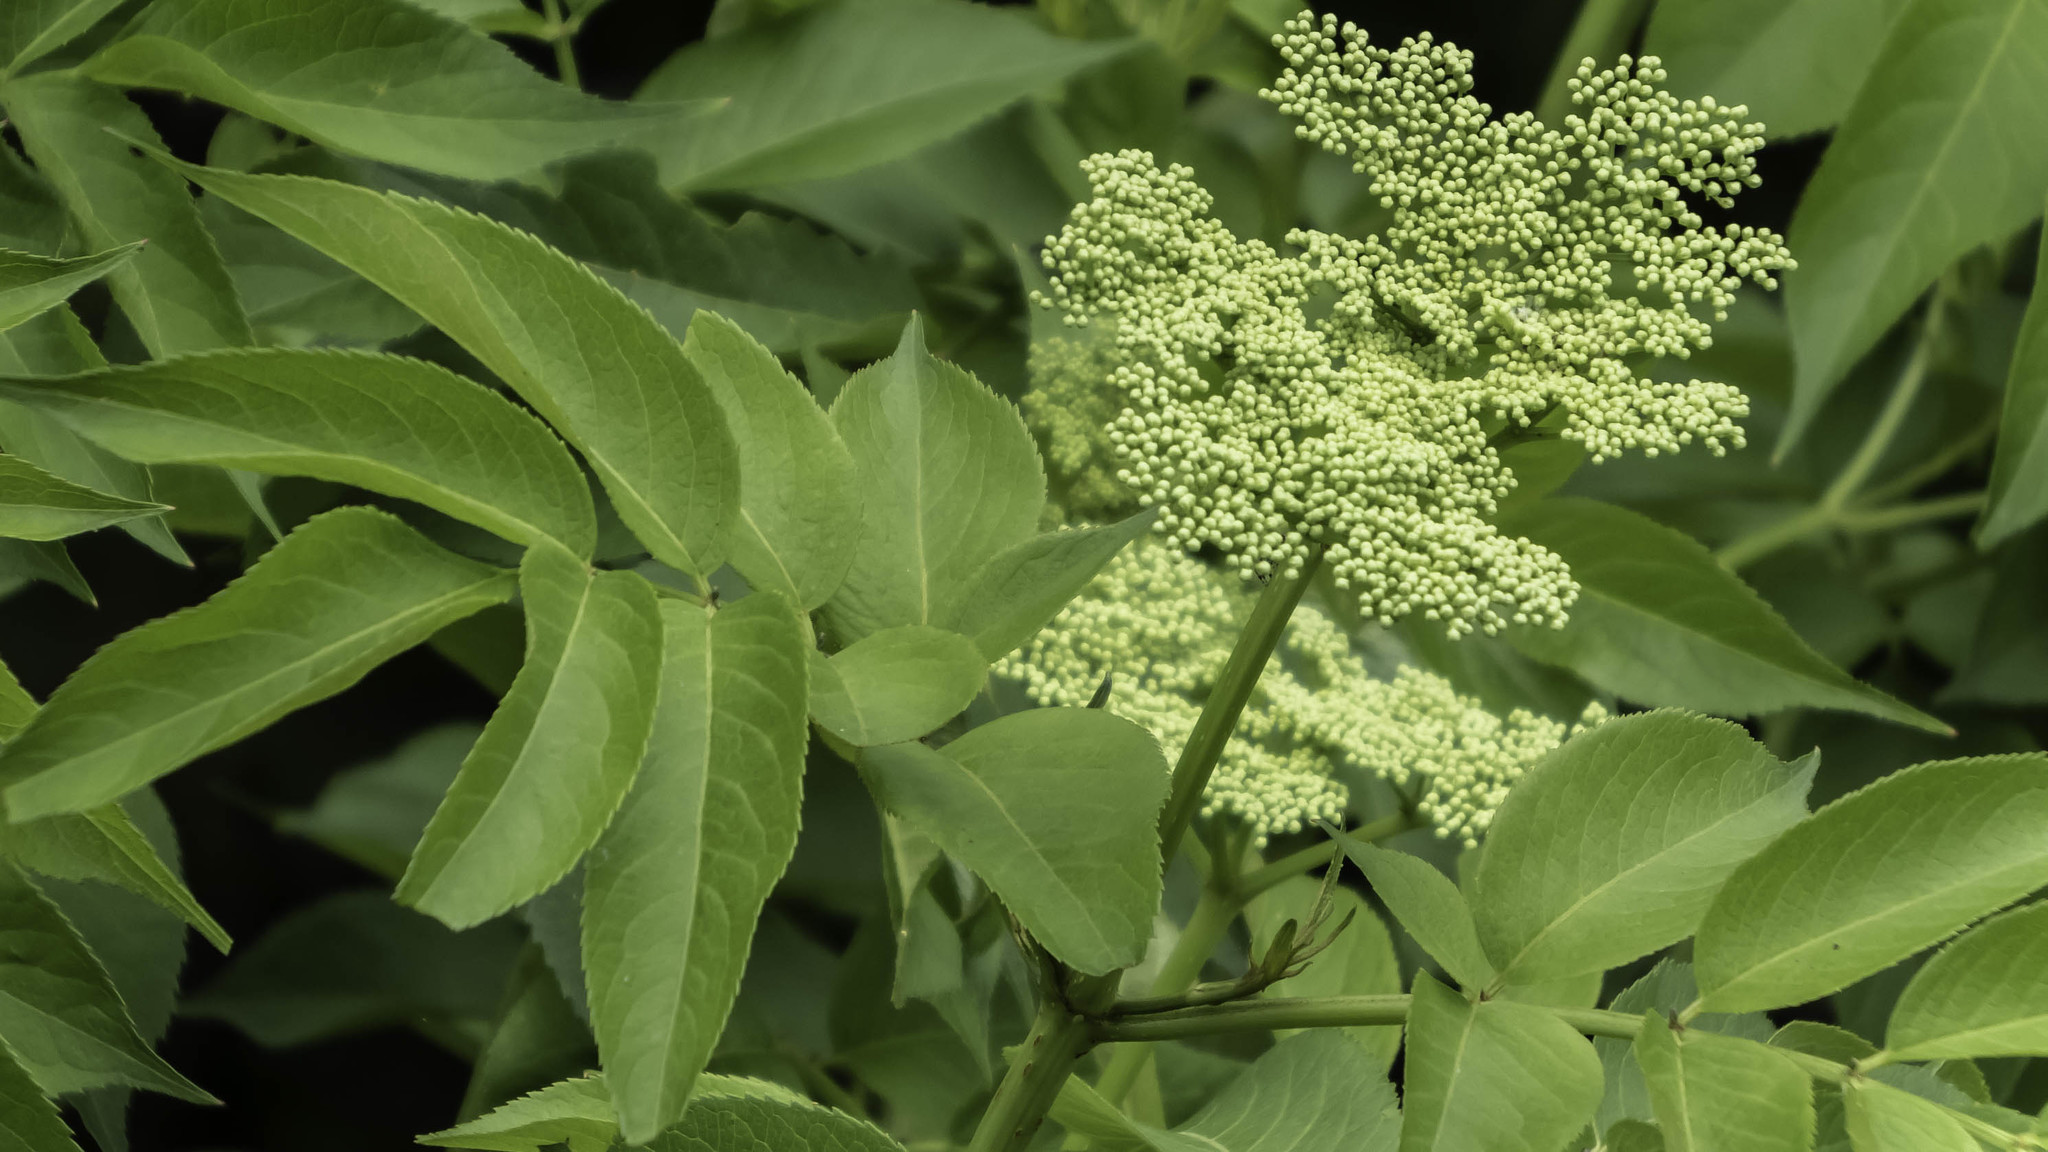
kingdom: Plantae
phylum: Tracheophyta
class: Magnoliopsida
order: Dipsacales
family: Viburnaceae
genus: Sambucus
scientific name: Sambucus canadensis
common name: American elder
